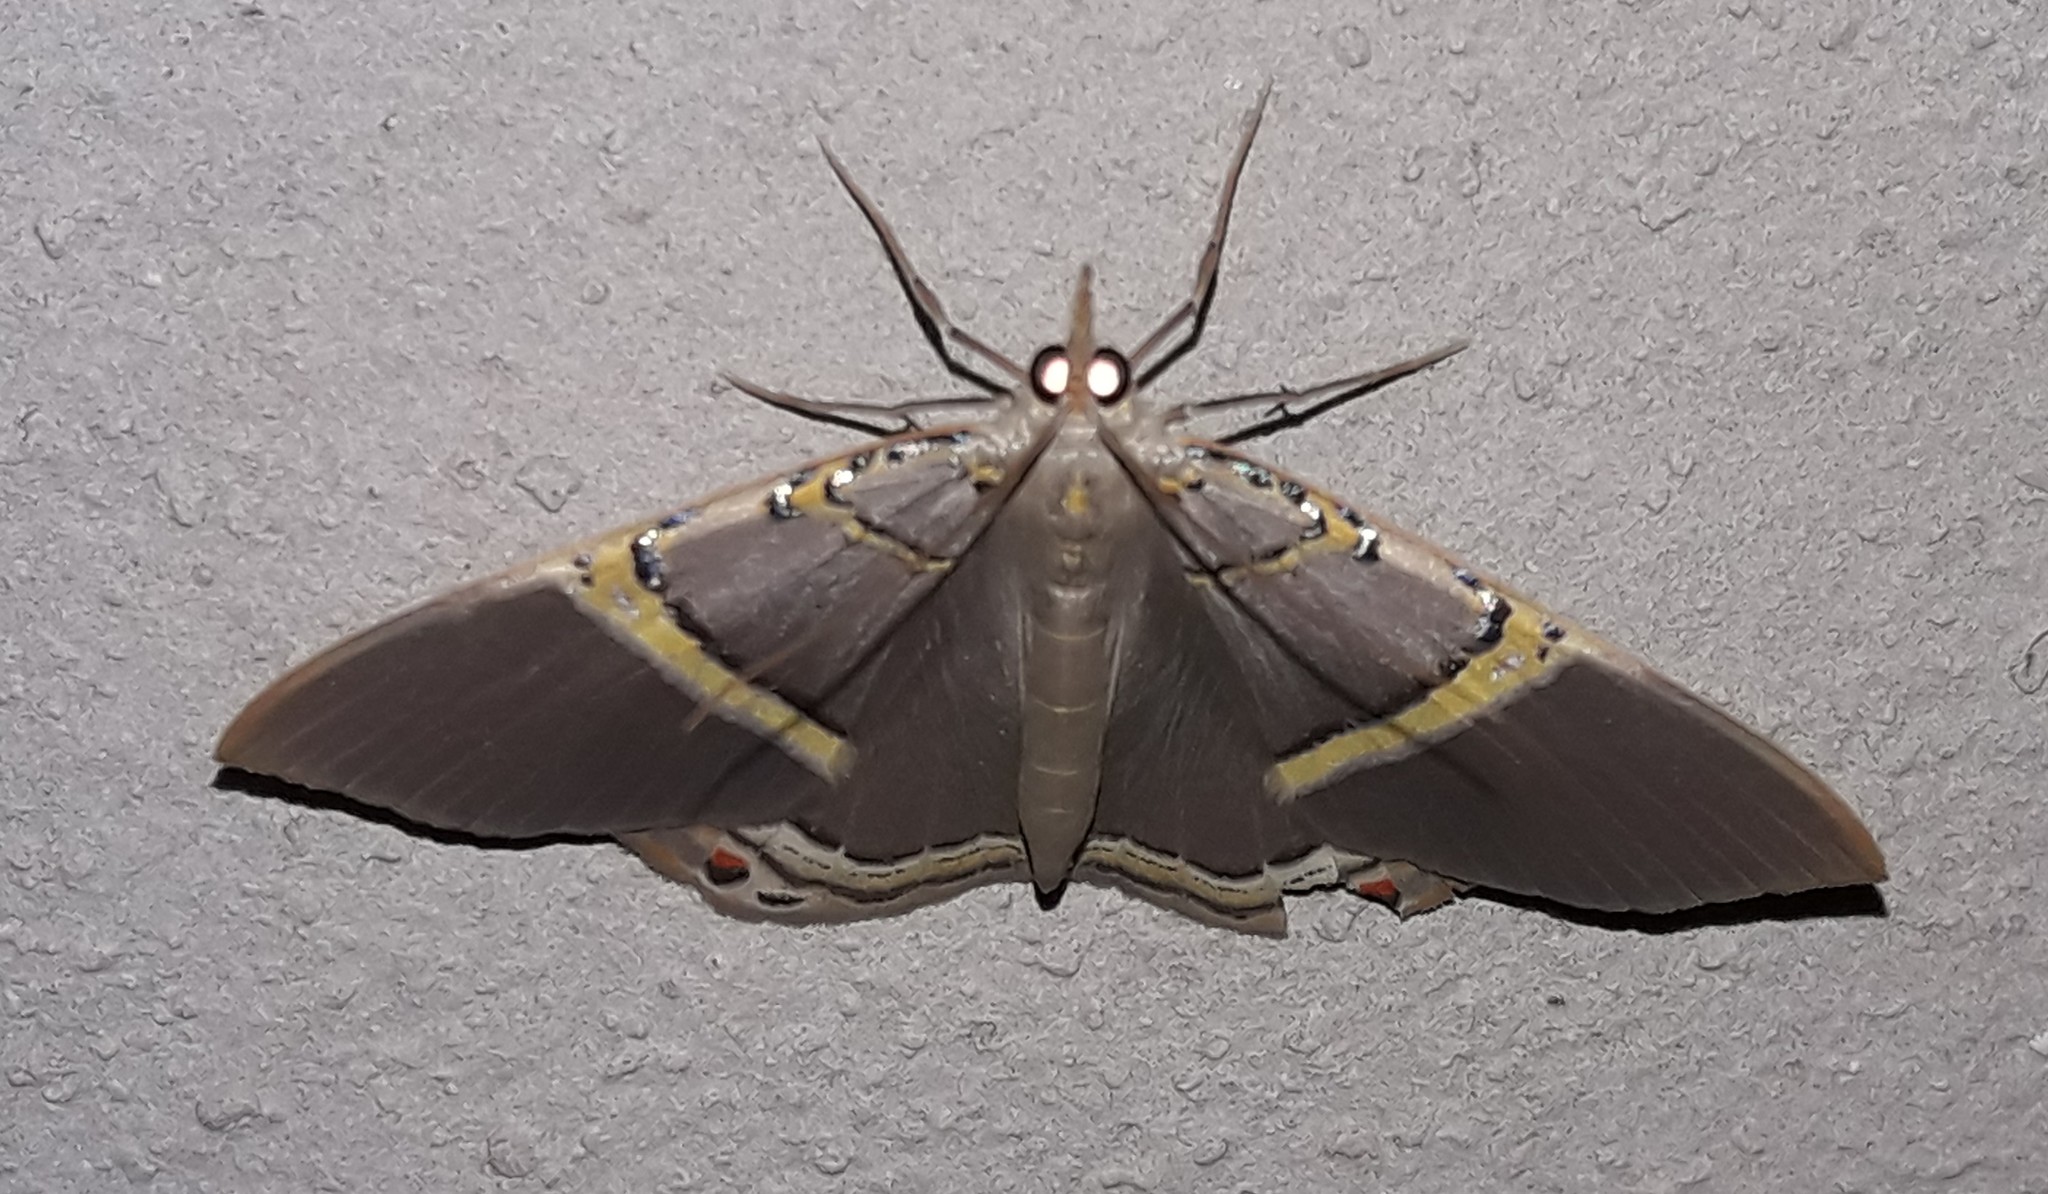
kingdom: Animalia
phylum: Arthropoda
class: Insecta
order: Lepidoptera
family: Geometridae
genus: Phrygionis
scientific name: Phrygionis privignaria
